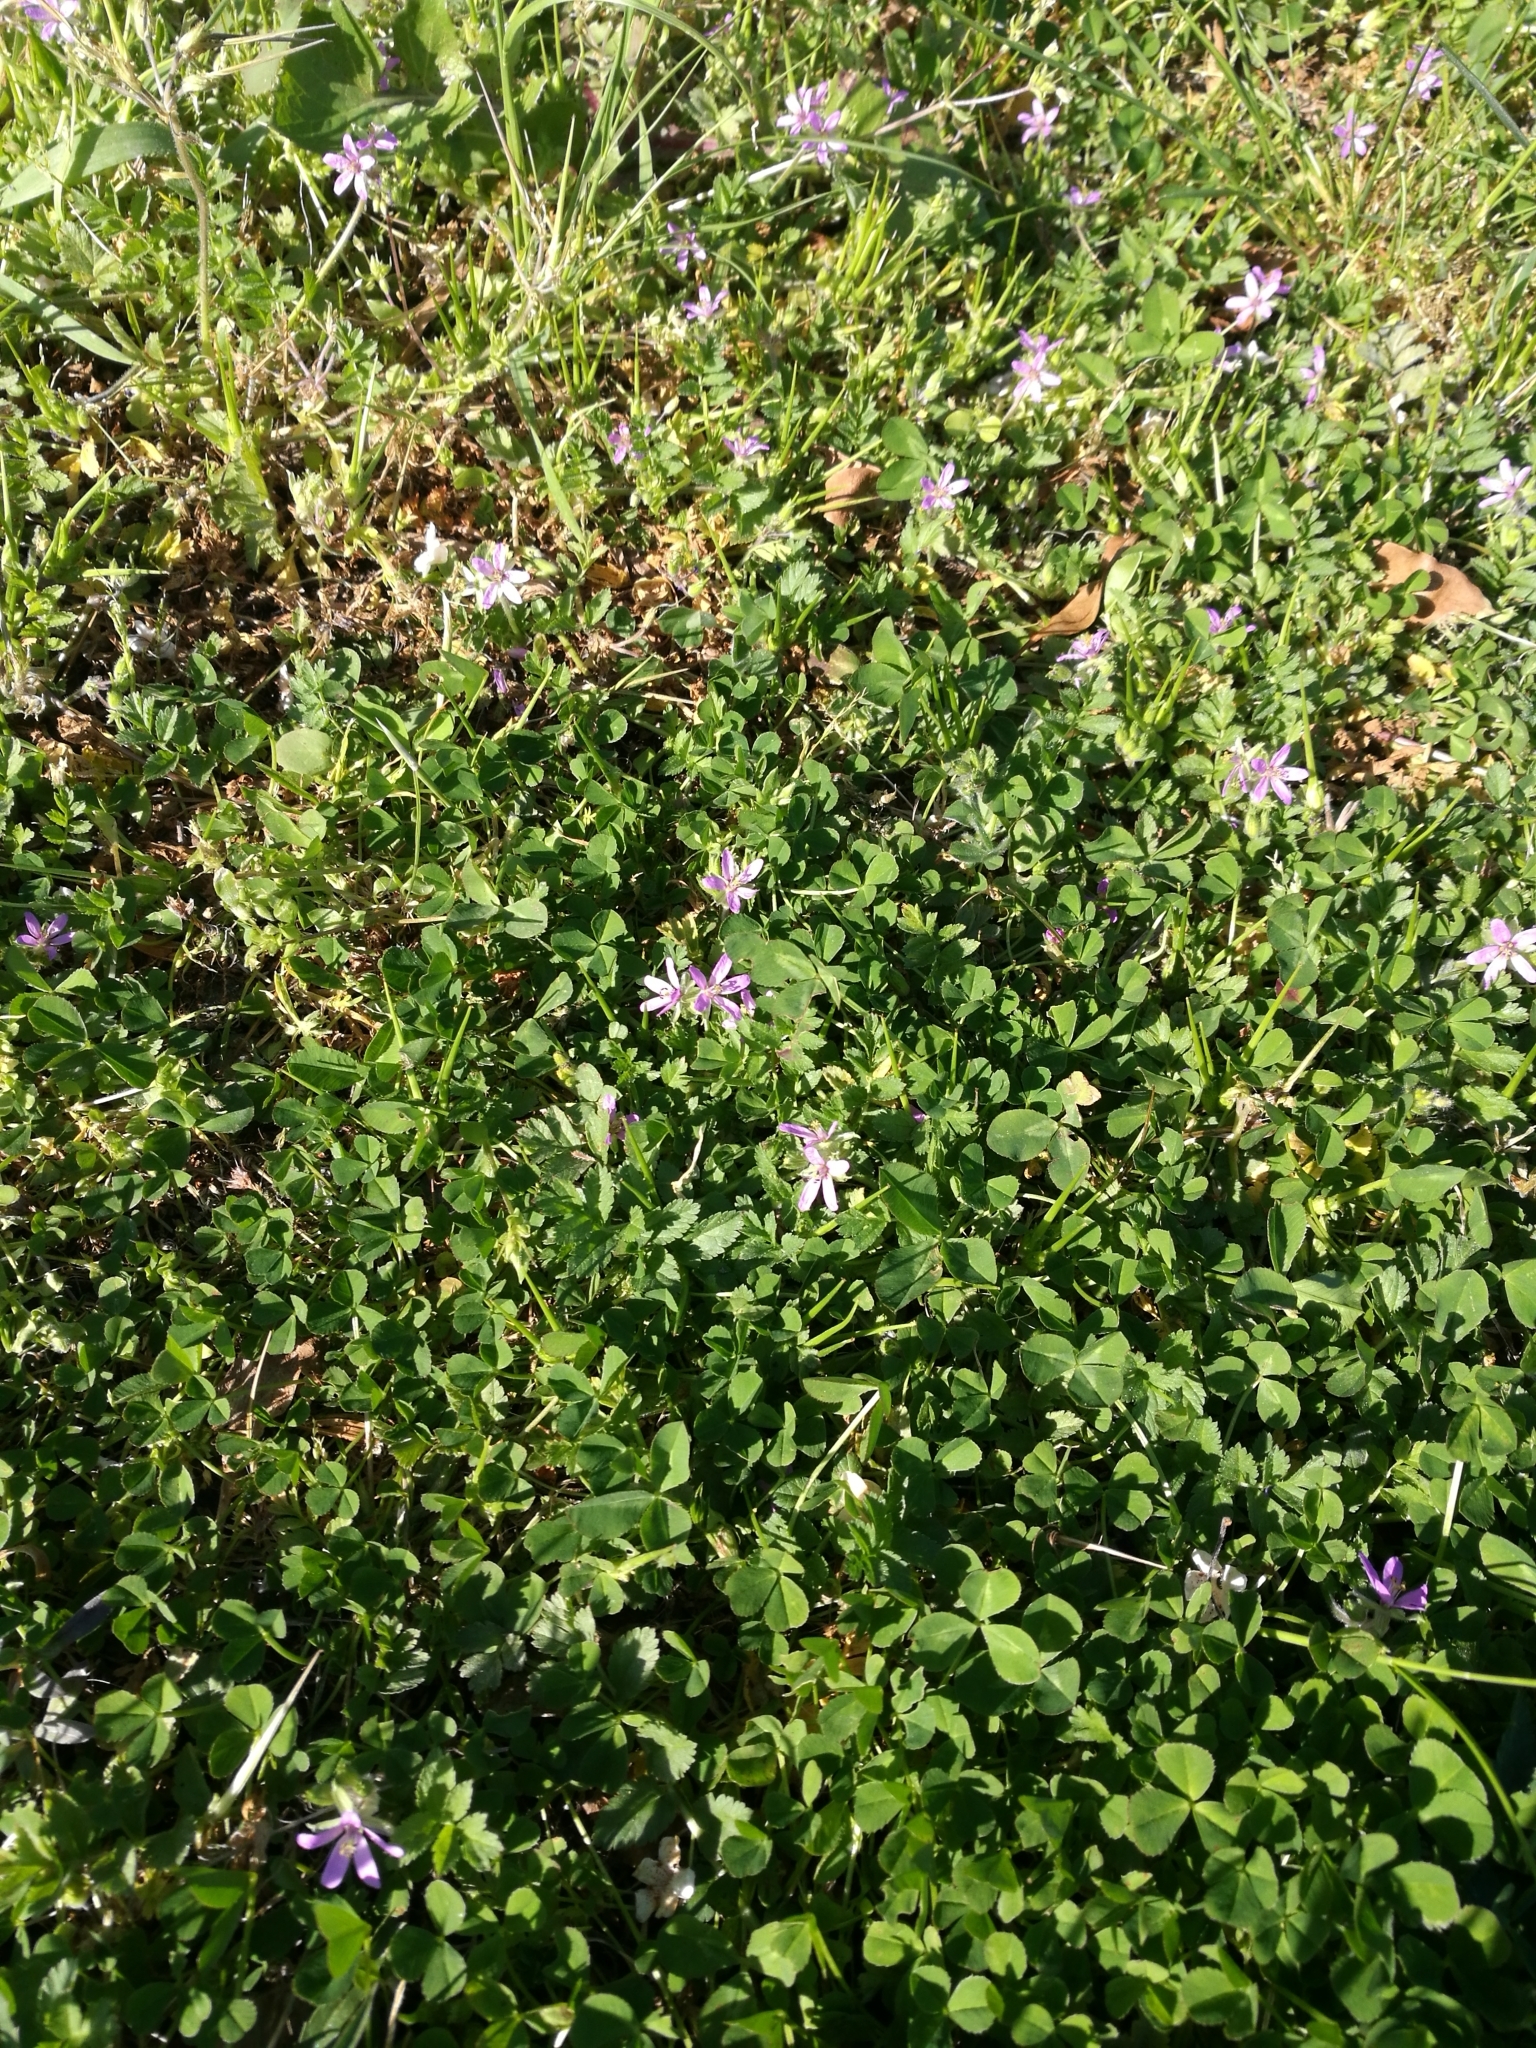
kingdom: Plantae
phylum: Tracheophyta
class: Magnoliopsida
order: Geraniales
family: Geraniaceae
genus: Erodium
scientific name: Erodium cicutarium
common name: Common stork's-bill
